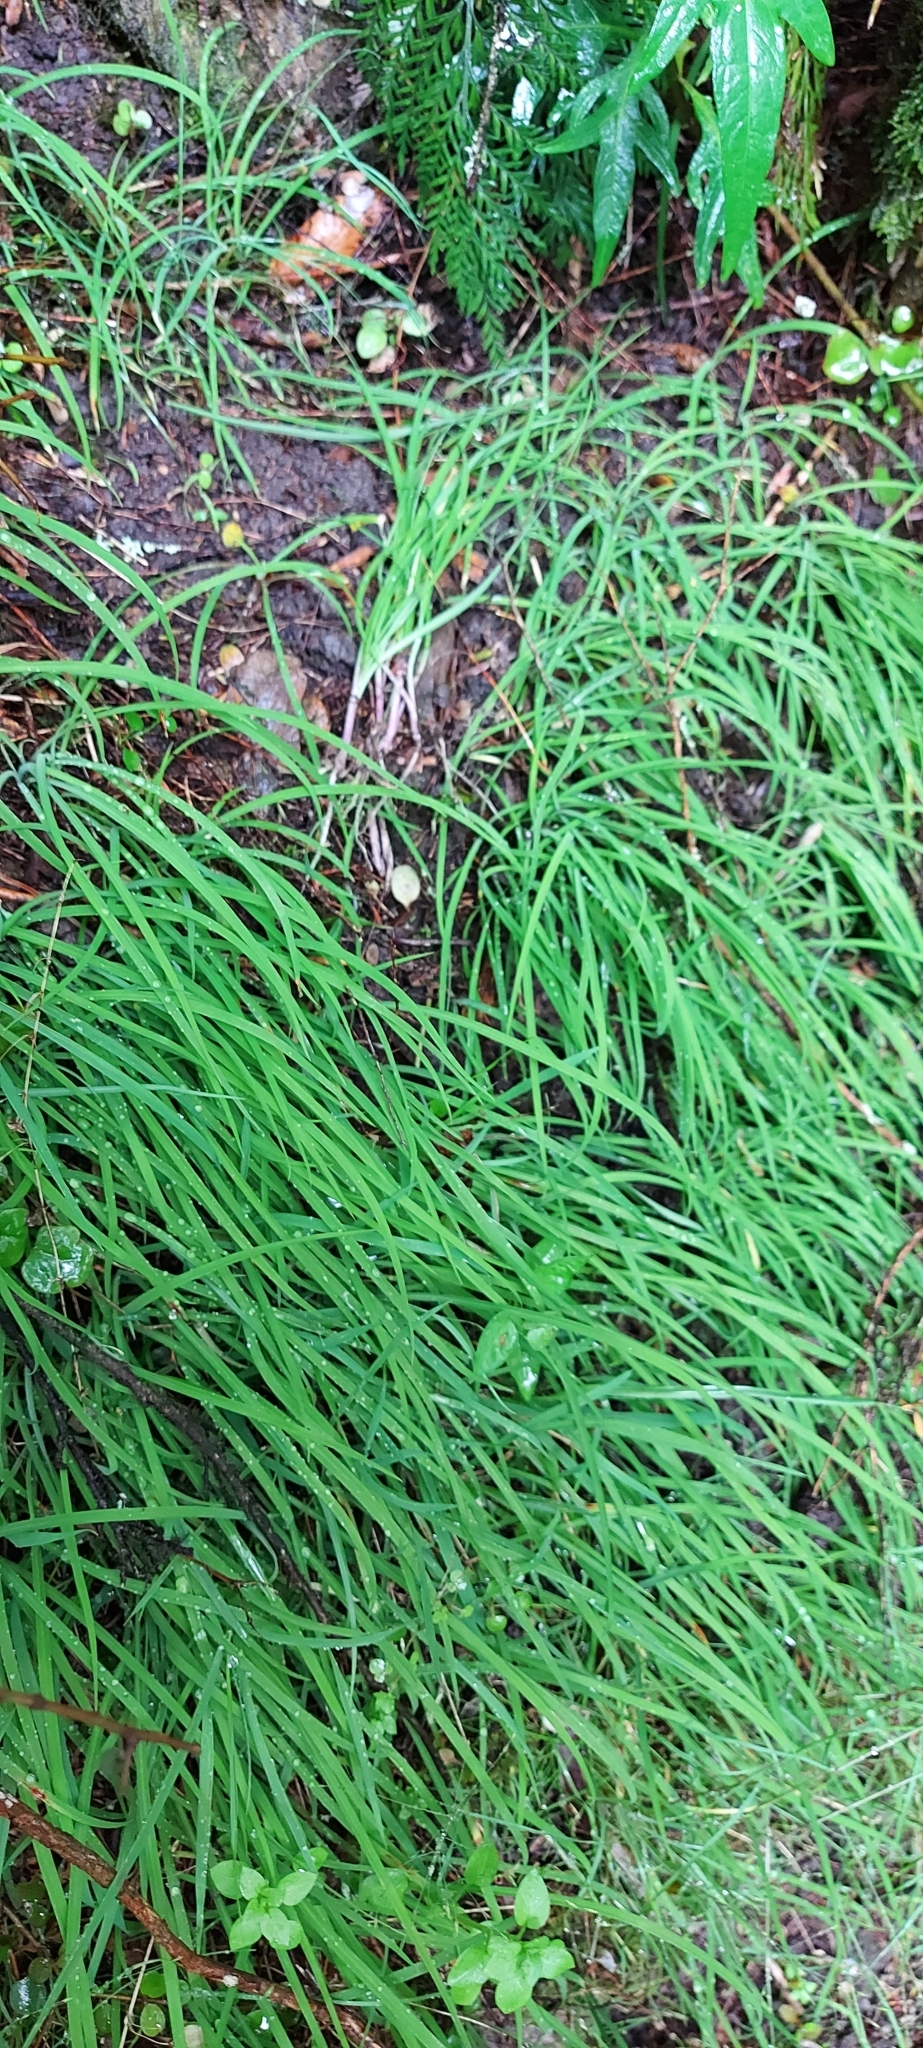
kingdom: Plantae
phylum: Tracheophyta
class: Liliopsida
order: Asparagales
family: Asparagaceae
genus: Arthropodium
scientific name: Arthropodium candidum
